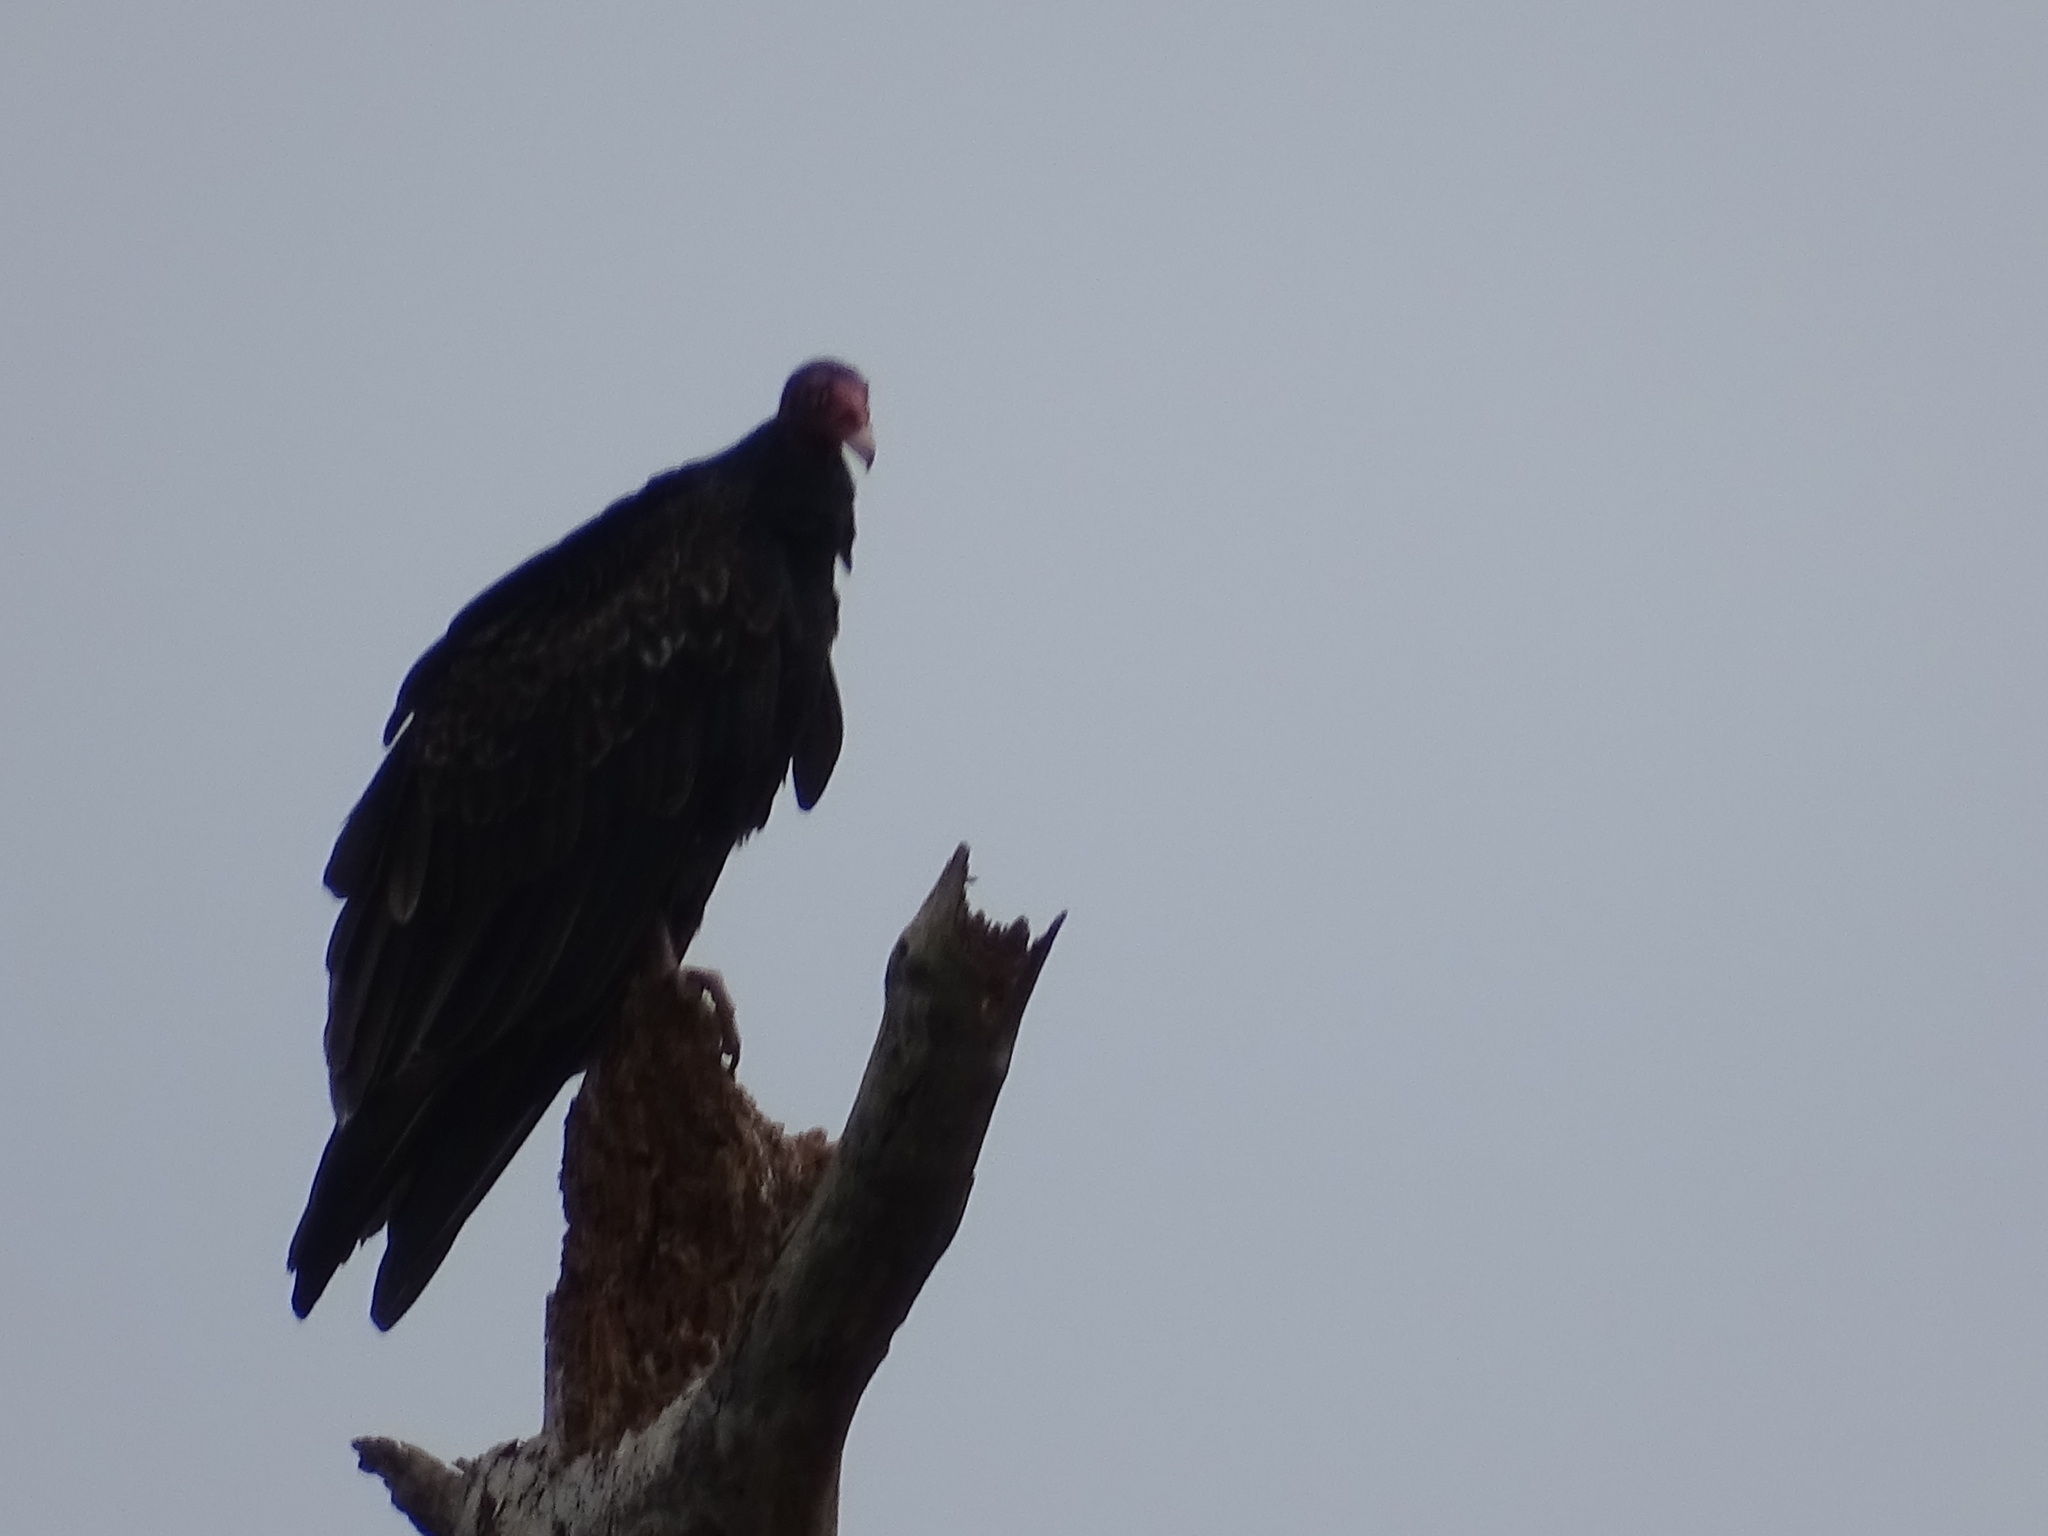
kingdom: Animalia
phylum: Chordata
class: Aves
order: Accipitriformes
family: Cathartidae
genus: Cathartes
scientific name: Cathartes aura
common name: Turkey vulture
